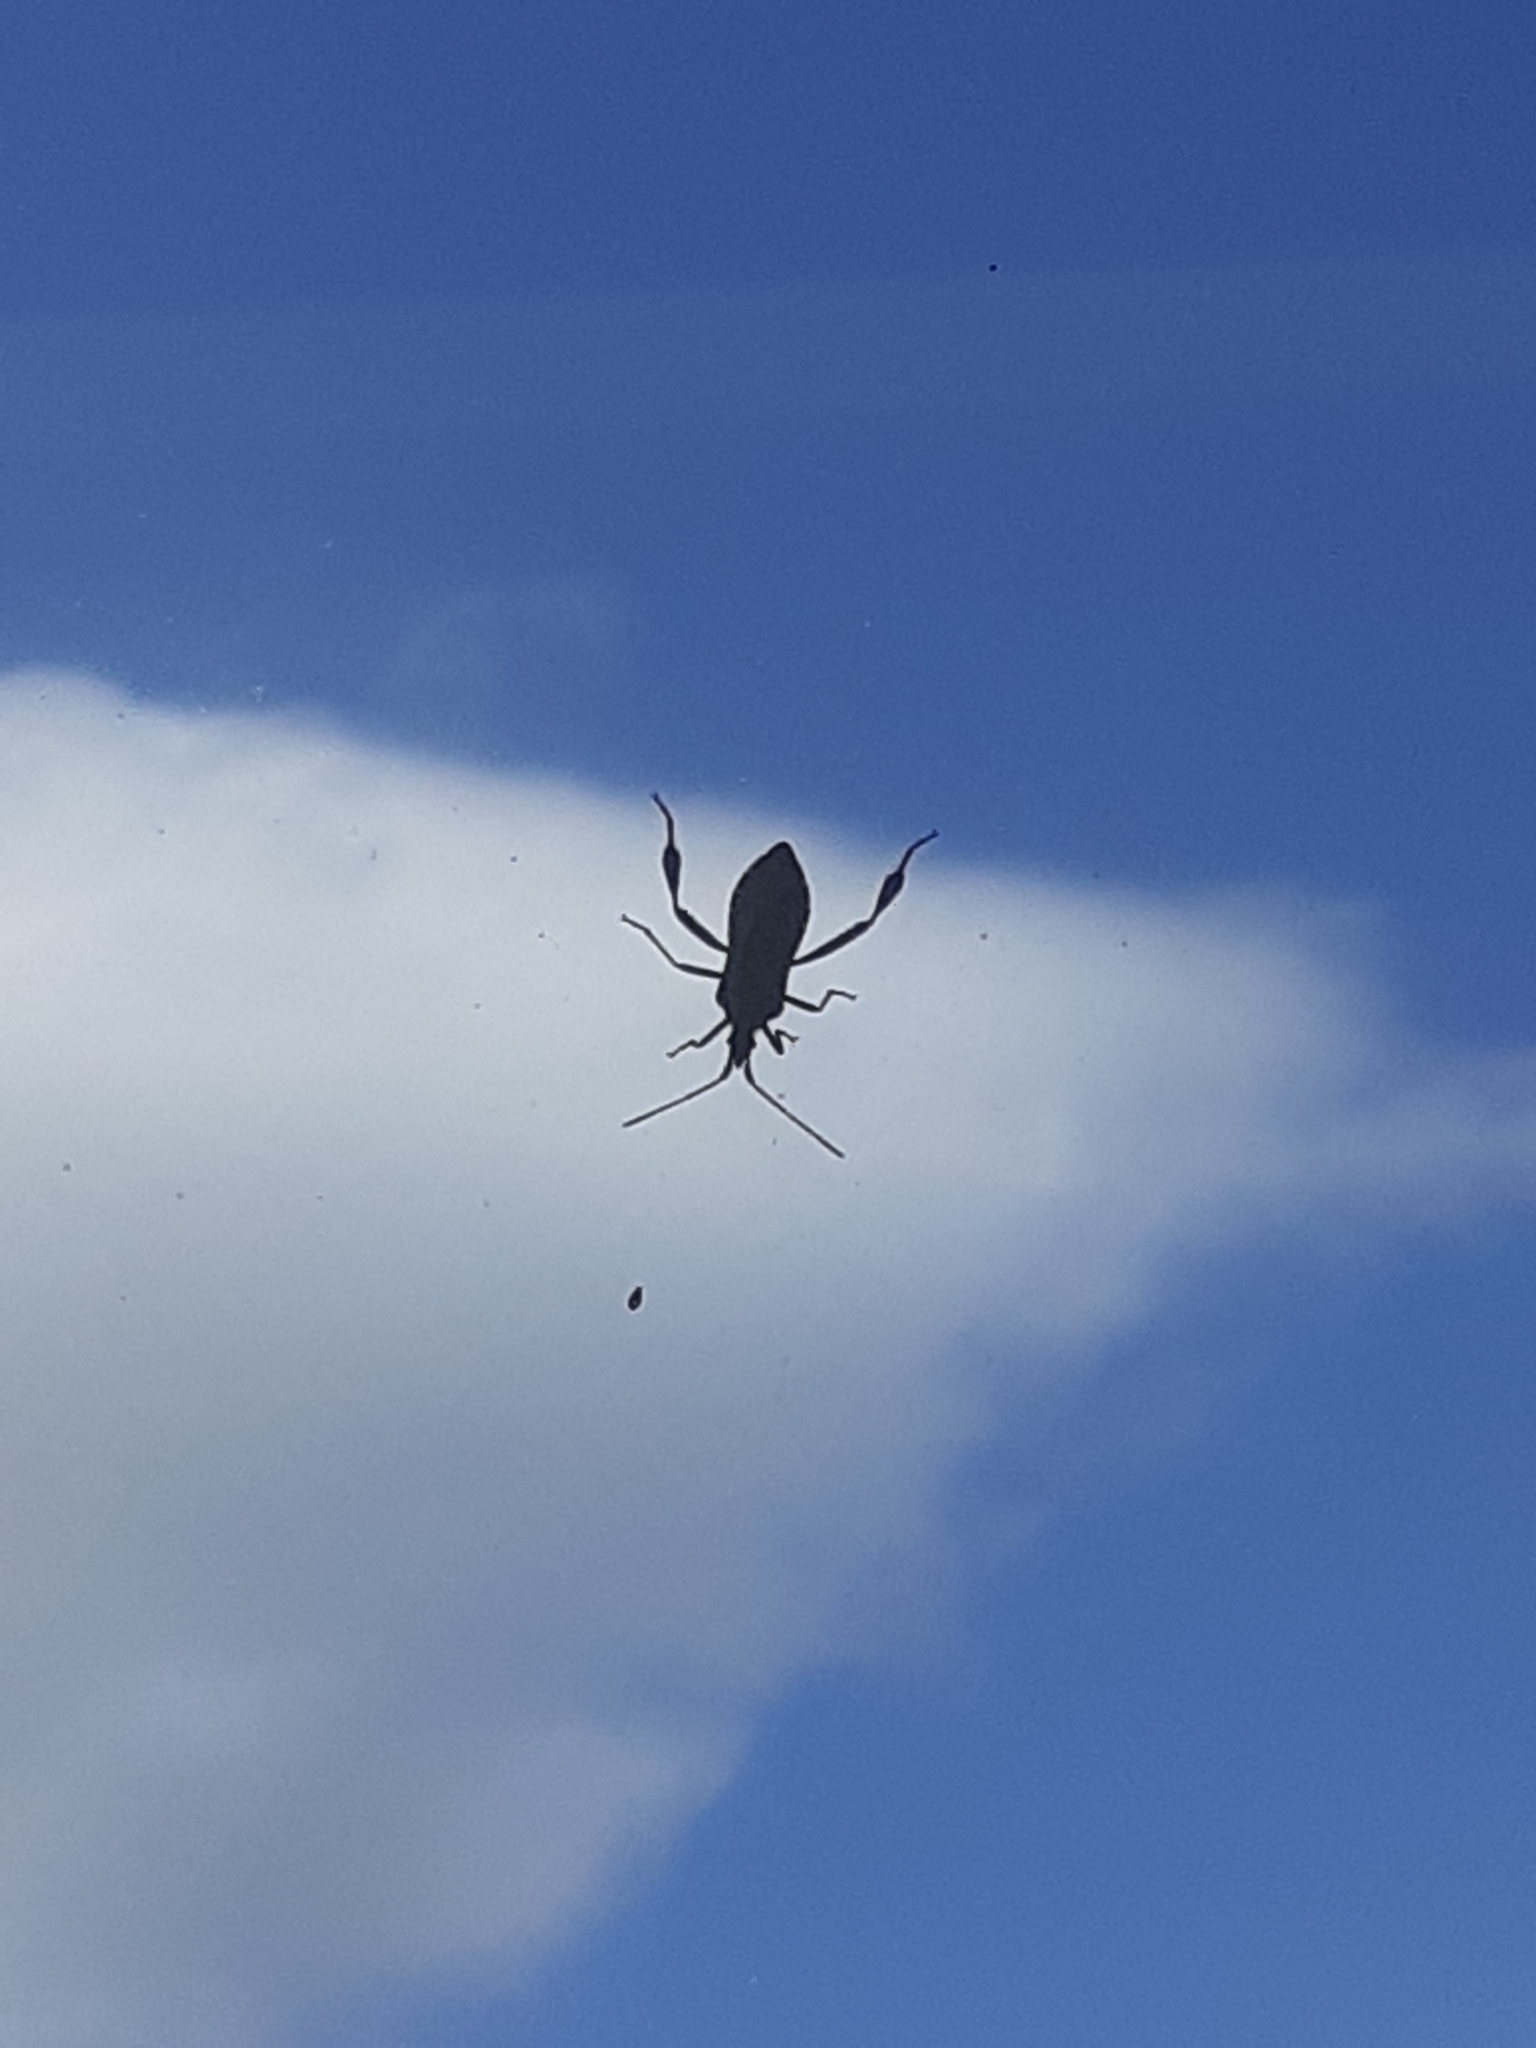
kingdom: Animalia
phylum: Arthropoda
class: Insecta
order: Hemiptera
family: Coreidae
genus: Leptoglossus
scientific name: Leptoglossus occidentalis
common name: Western conifer-seed bug
